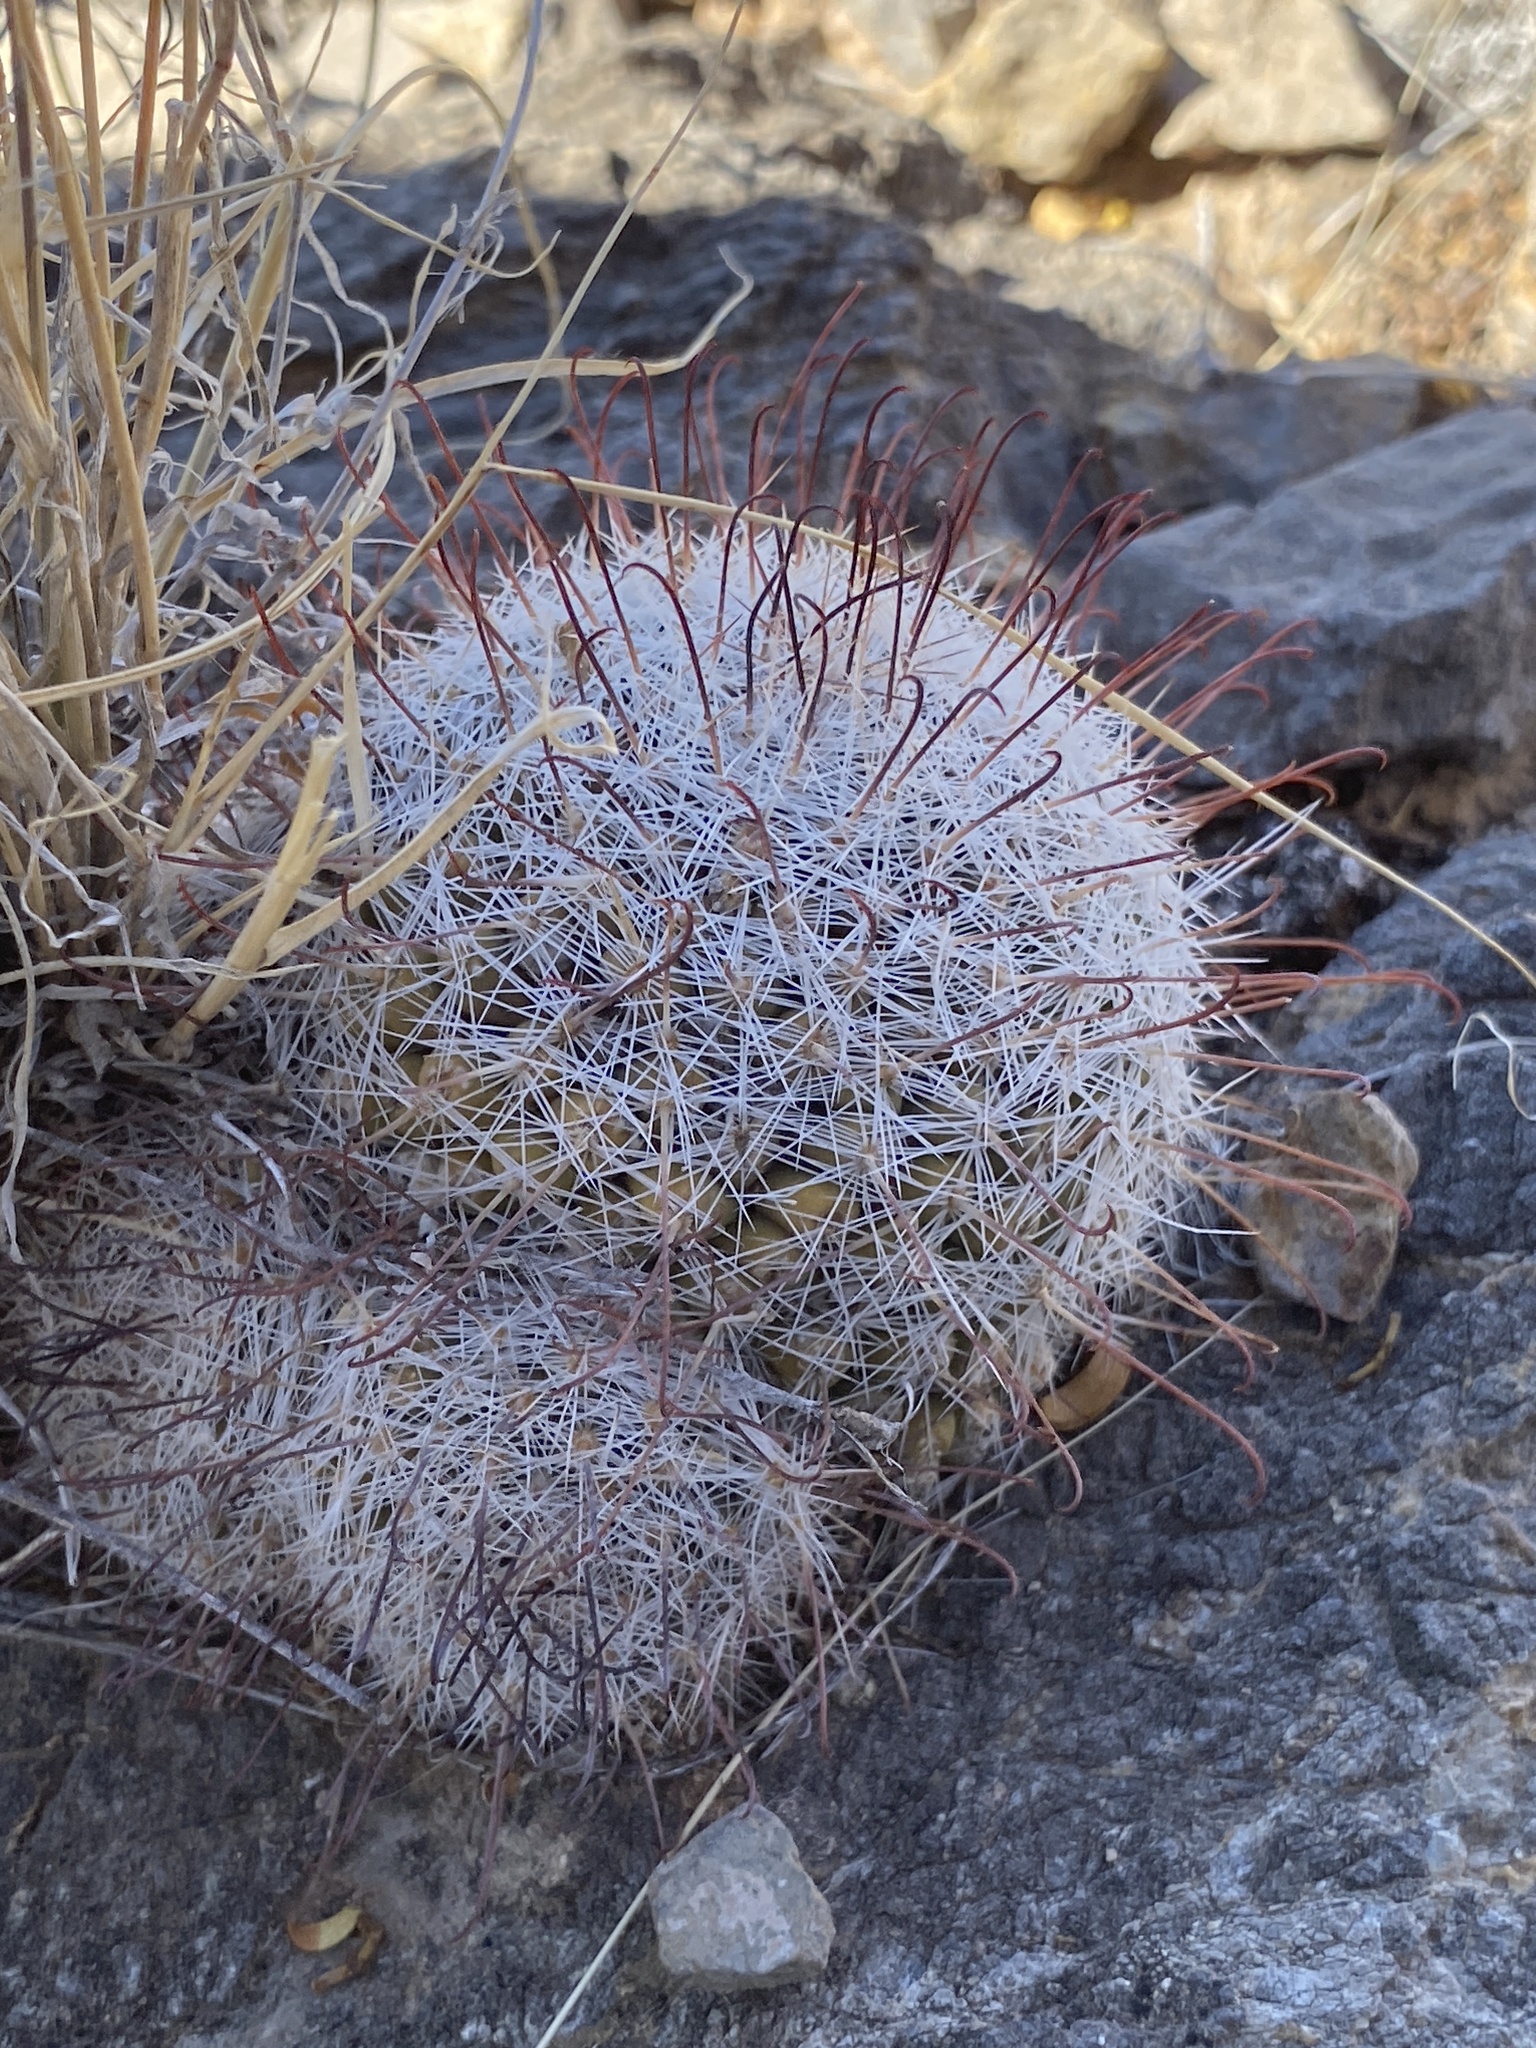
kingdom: Plantae
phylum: Tracheophyta
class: Magnoliopsida
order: Caryophyllales
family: Cactaceae
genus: Cochemiea
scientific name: Cochemiea grahamii
